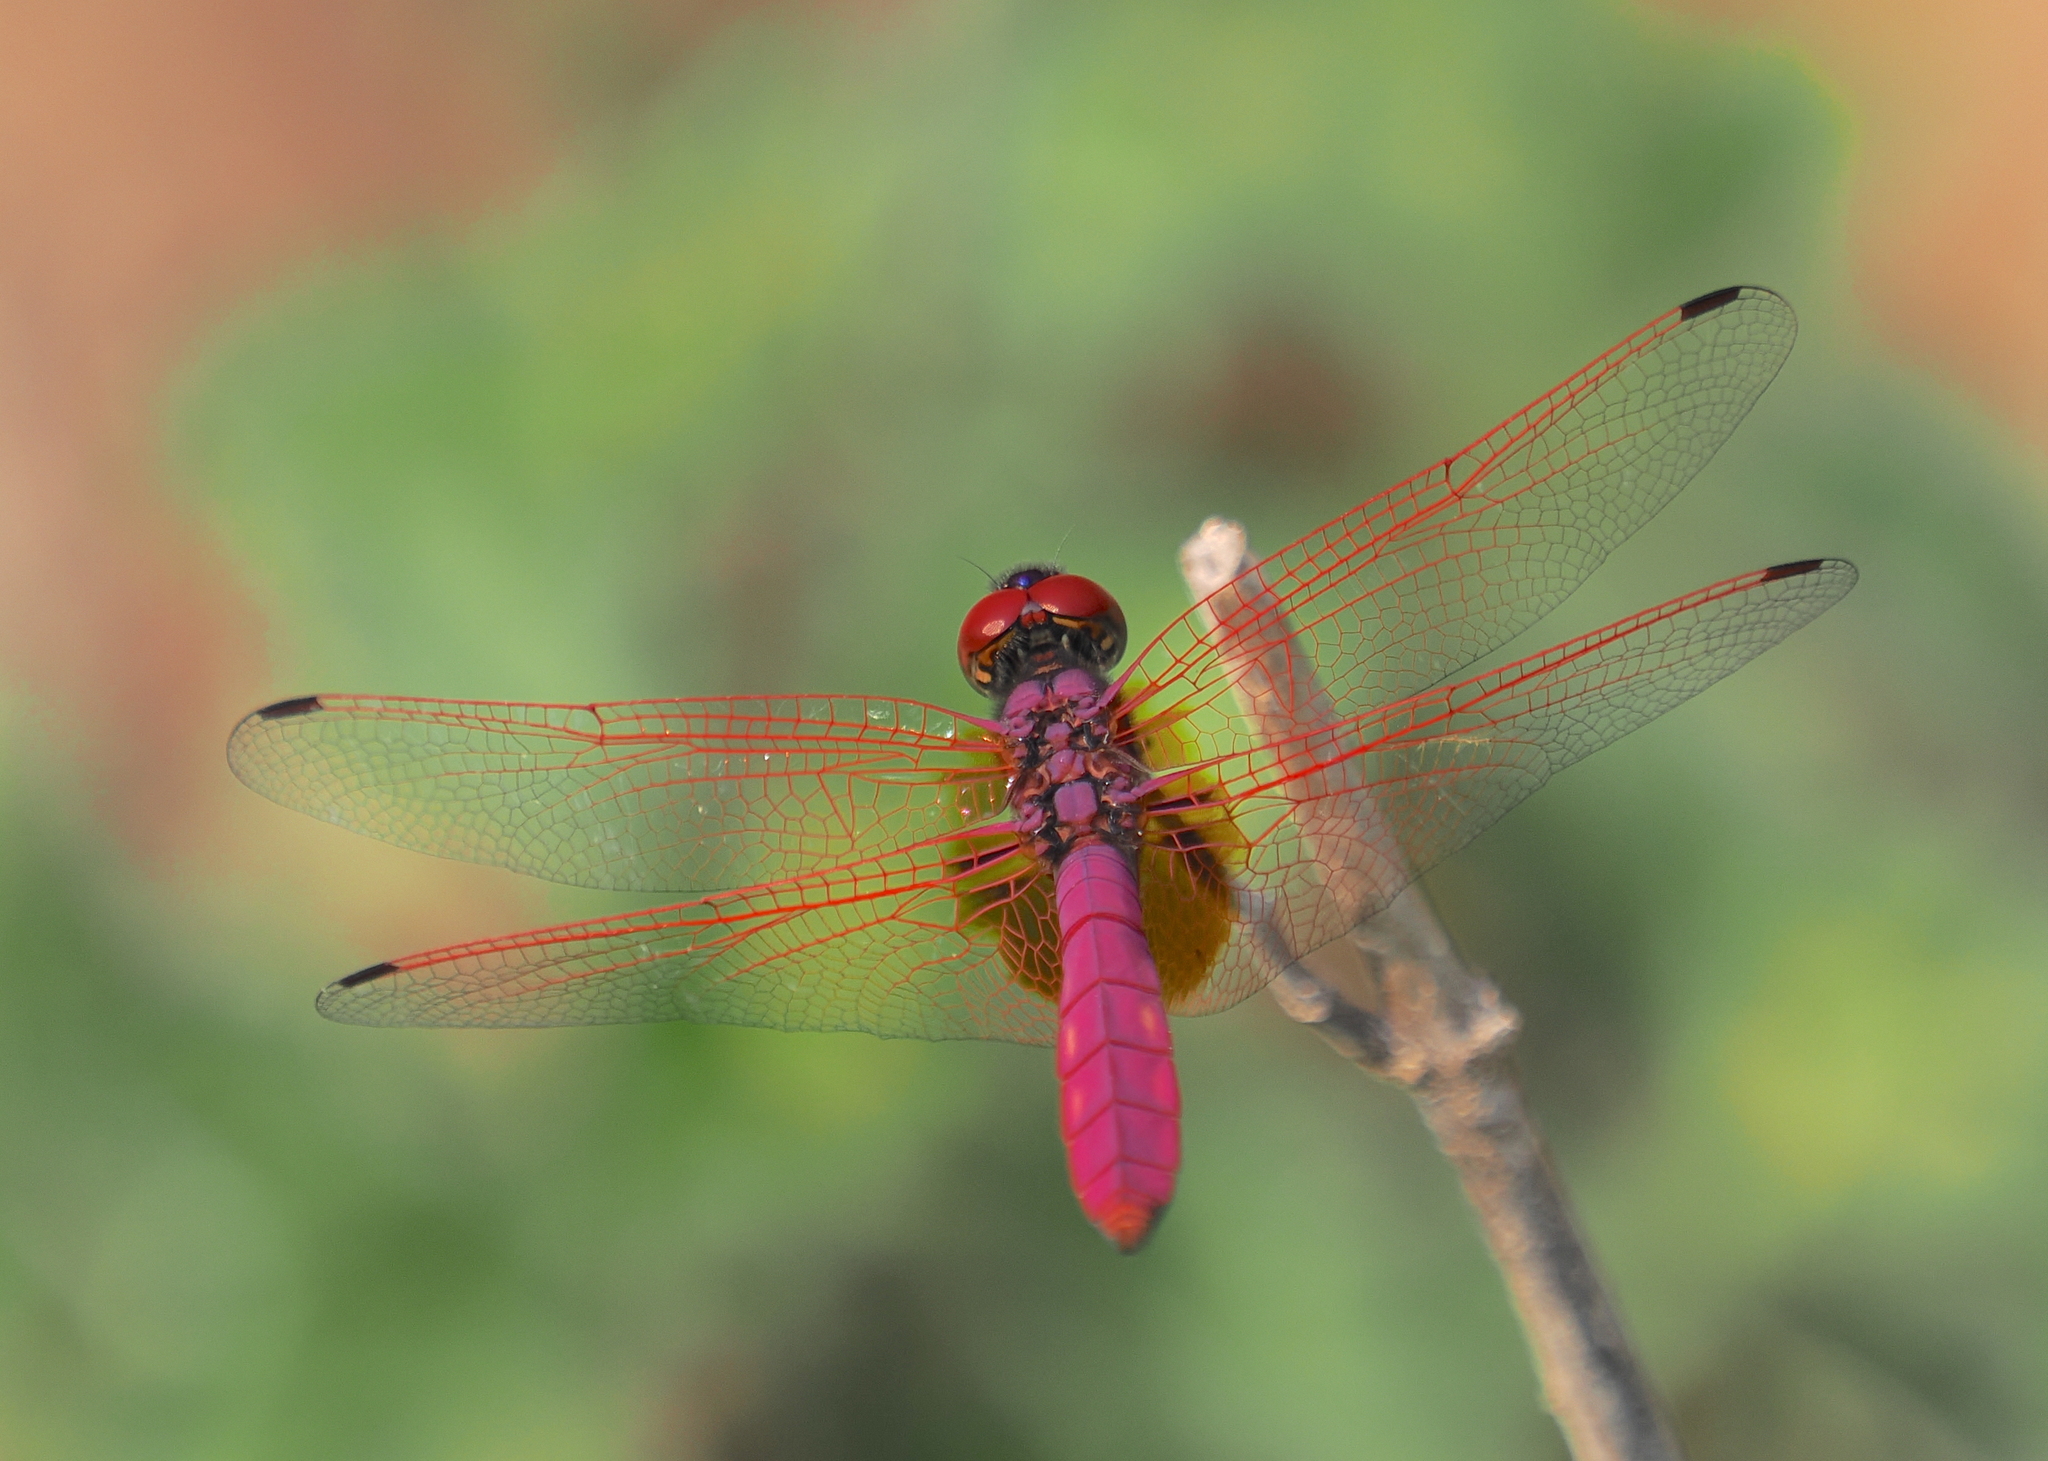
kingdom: Animalia
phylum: Arthropoda
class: Insecta
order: Odonata
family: Libellulidae
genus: Trithemis
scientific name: Trithemis aurora
